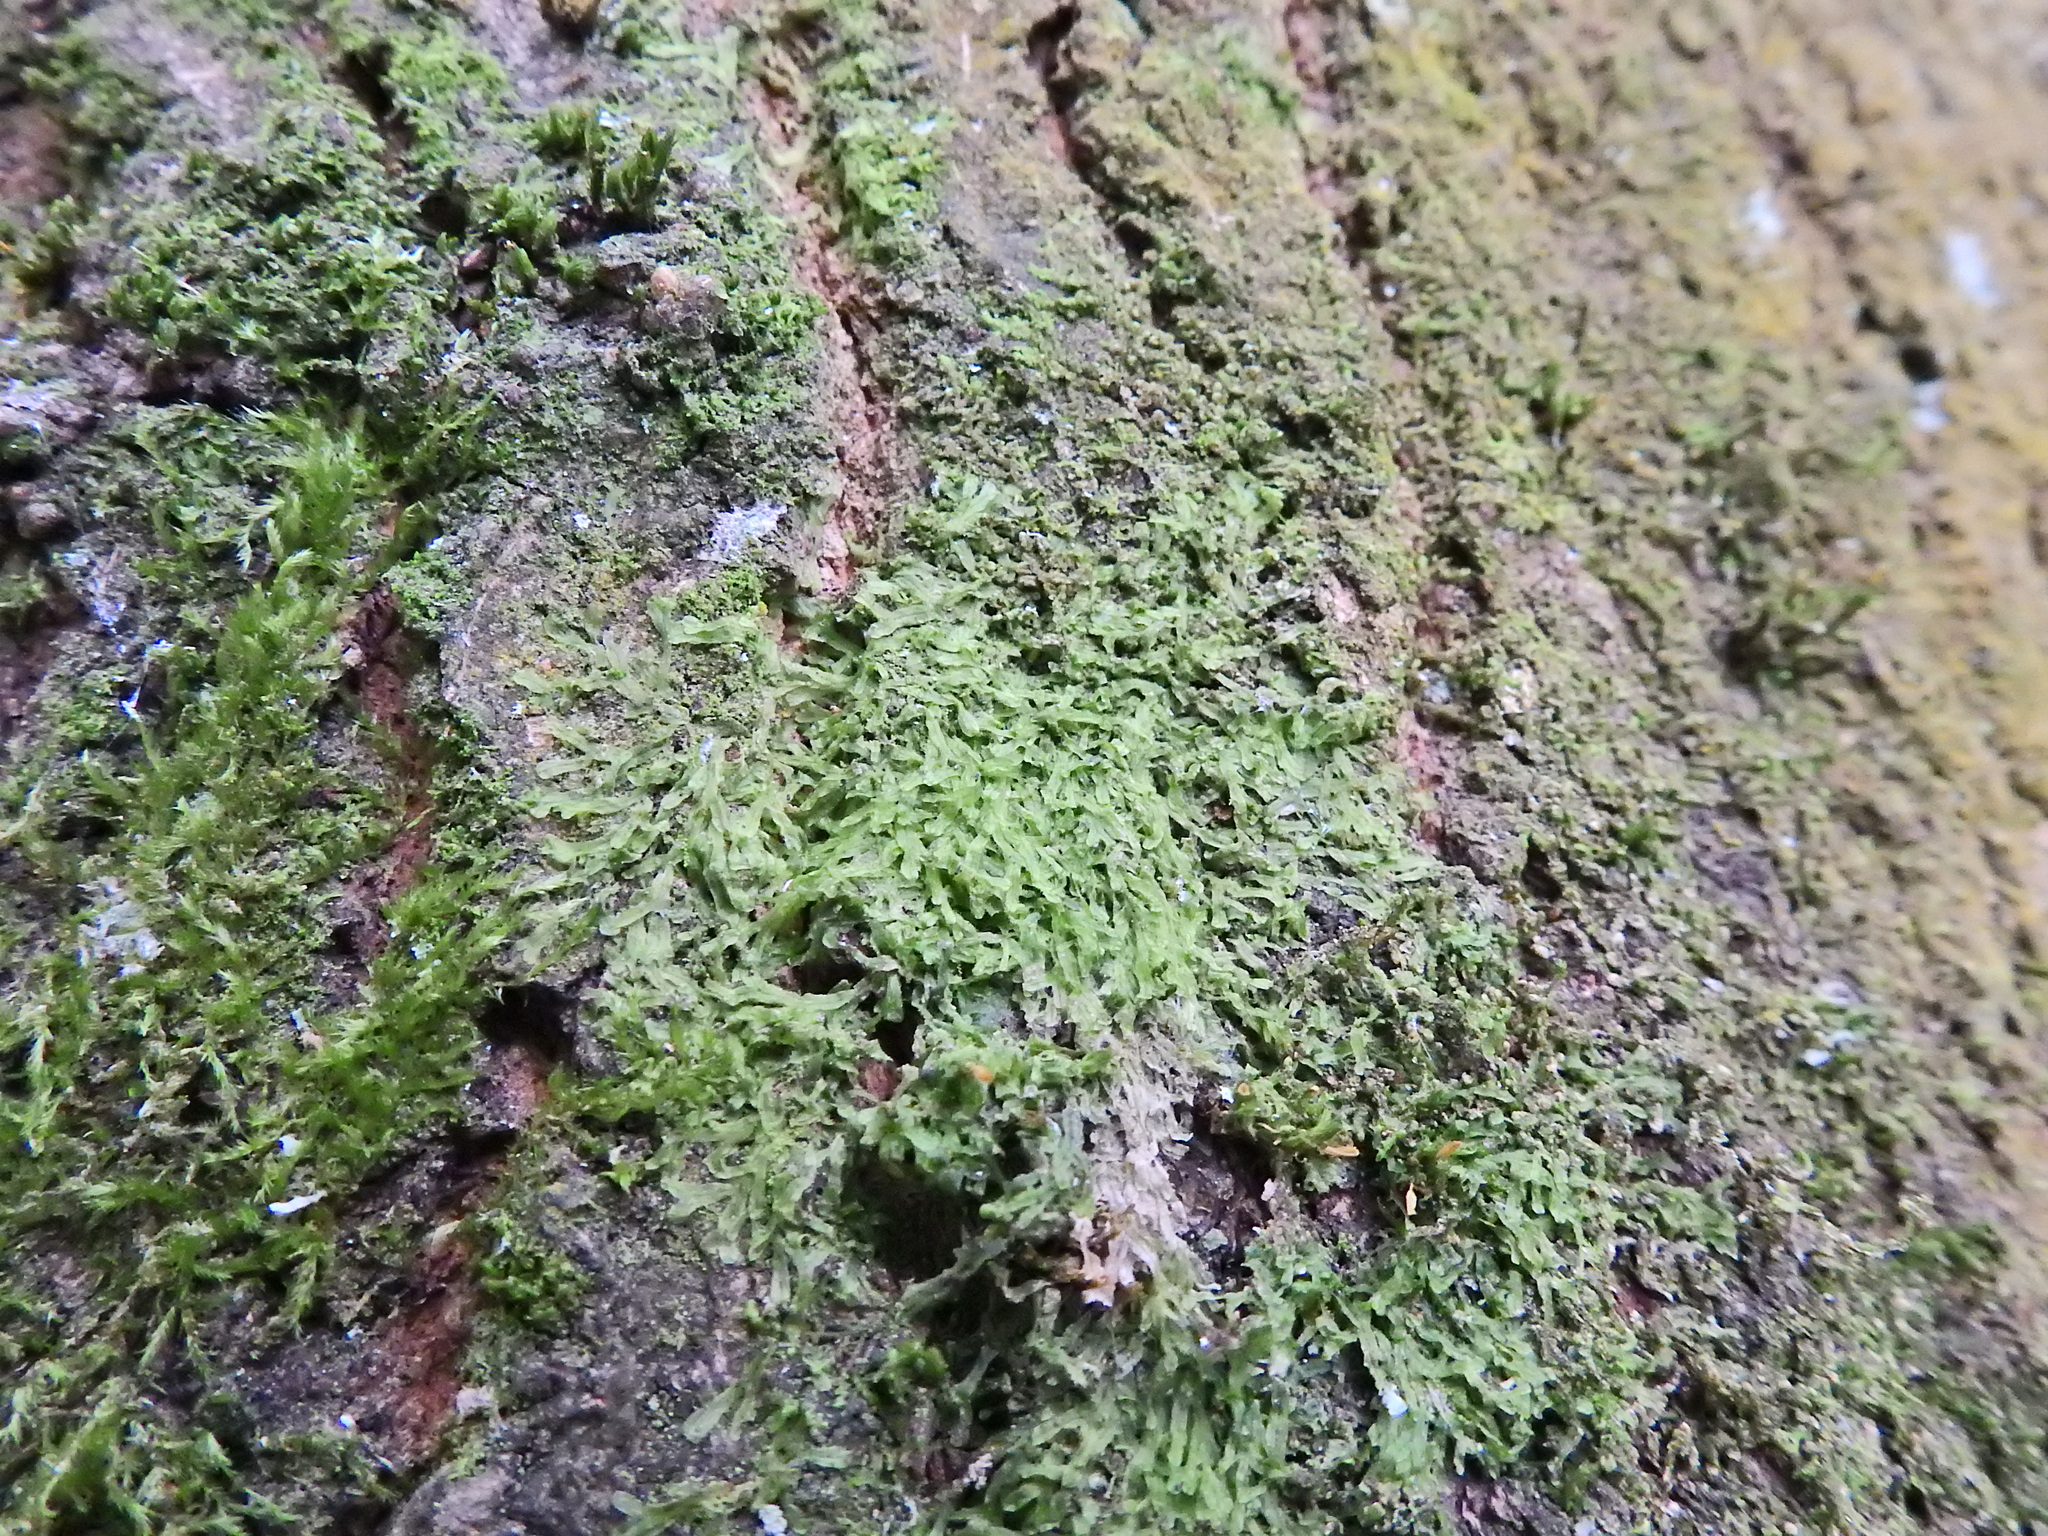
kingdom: Plantae
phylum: Marchantiophyta
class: Jungermanniopsida
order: Metzgeriales
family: Metzgeriaceae
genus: Metzgeria
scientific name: Metzgeria furcata
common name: Forked veilwort
